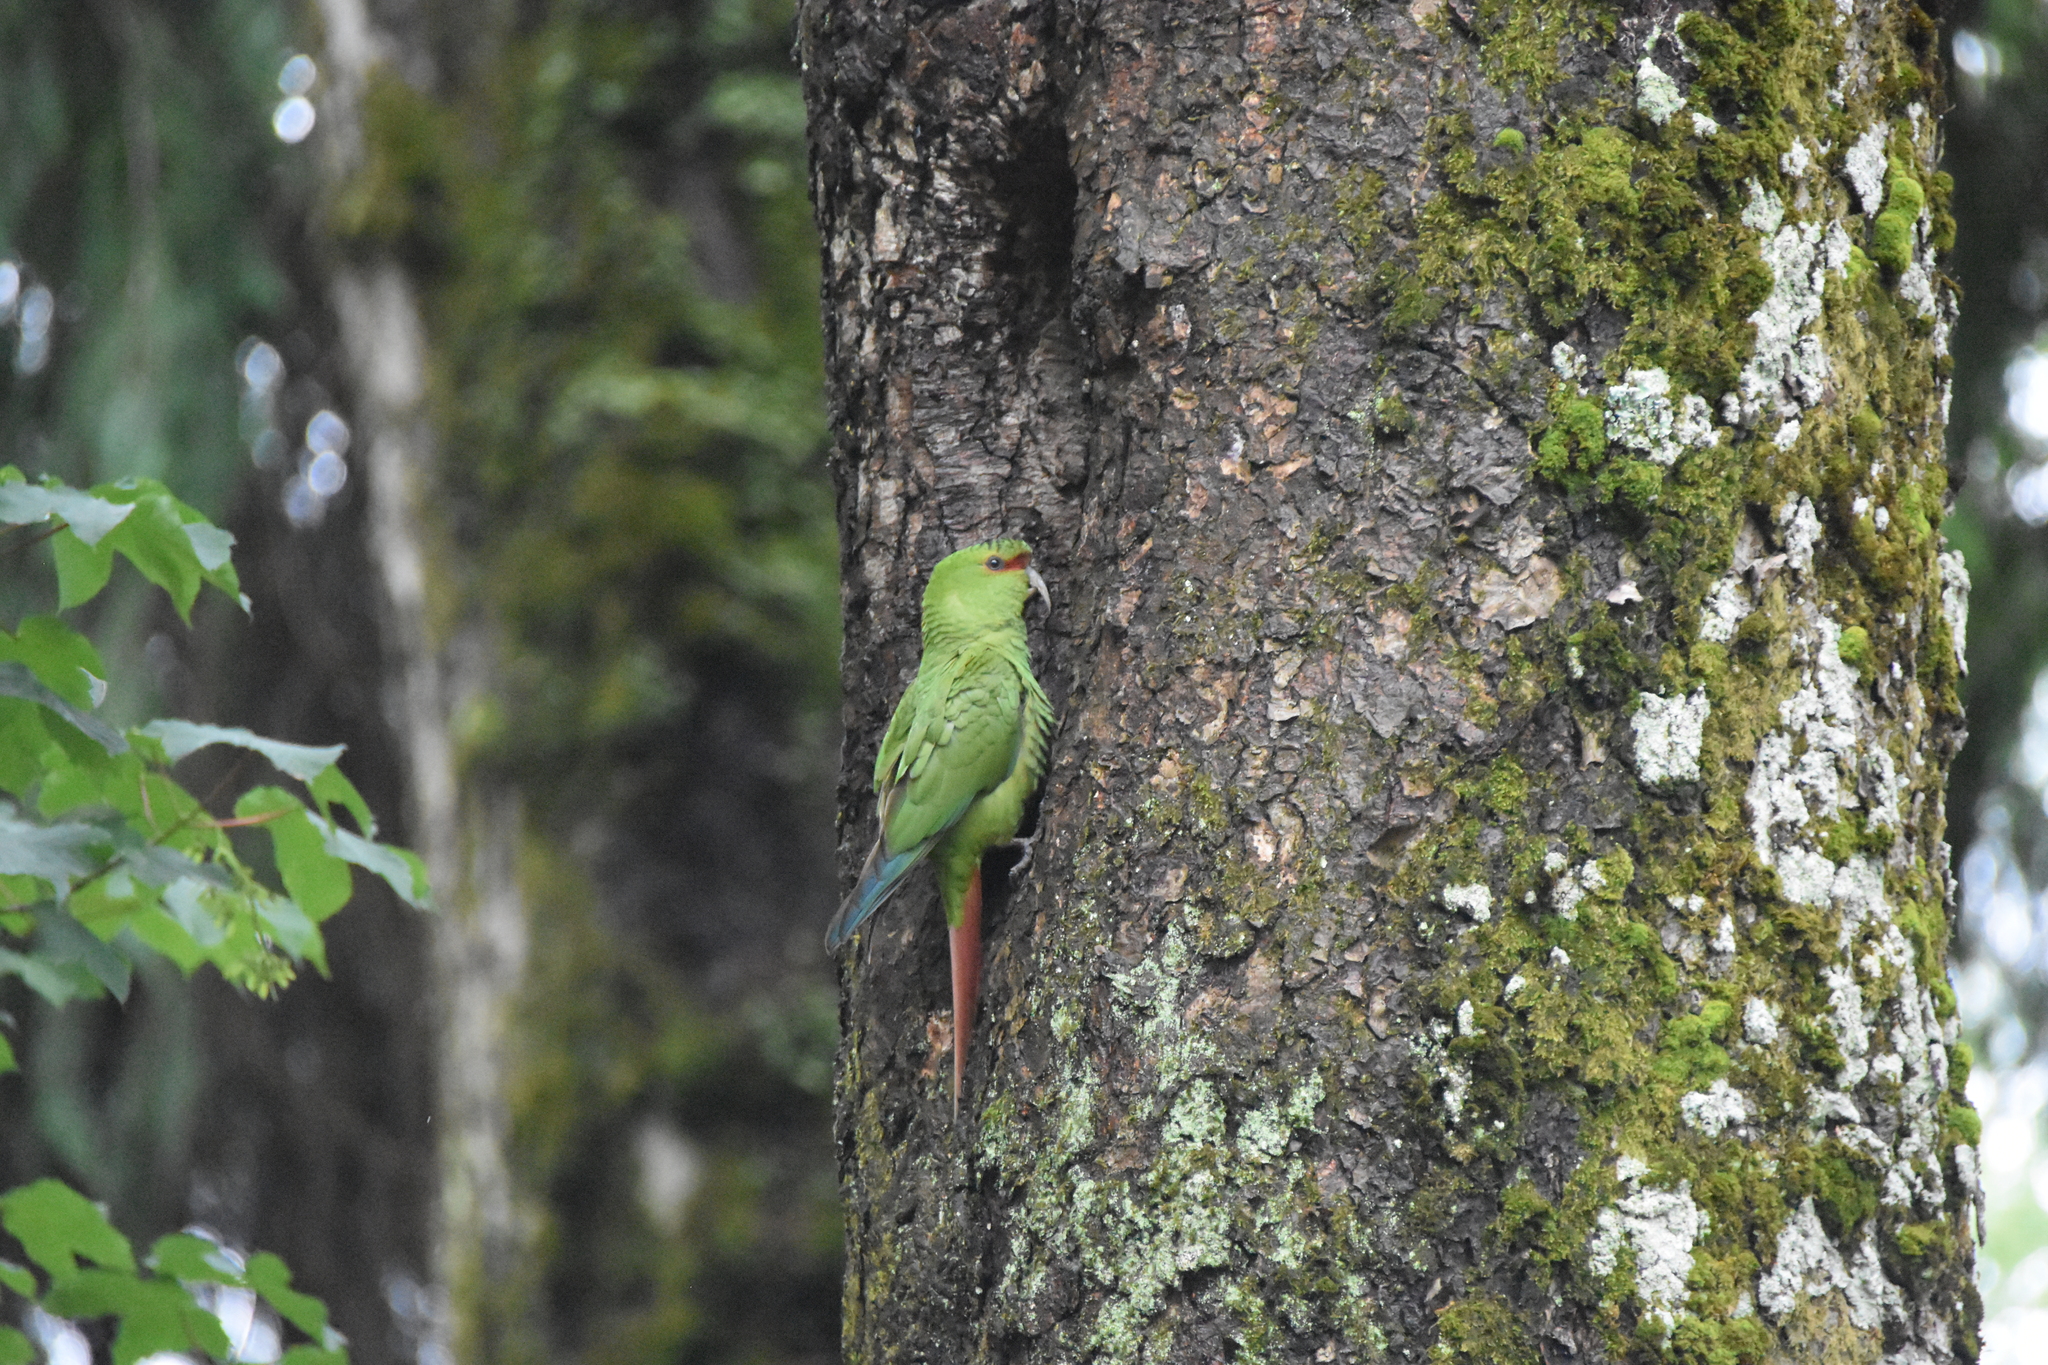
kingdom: Animalia
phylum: Chordata
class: Aves
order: Psittaciformes
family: Psittacidae
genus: Enicognathus
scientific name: Enicognathus leptorhynchus
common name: Slender-billed parakeet
